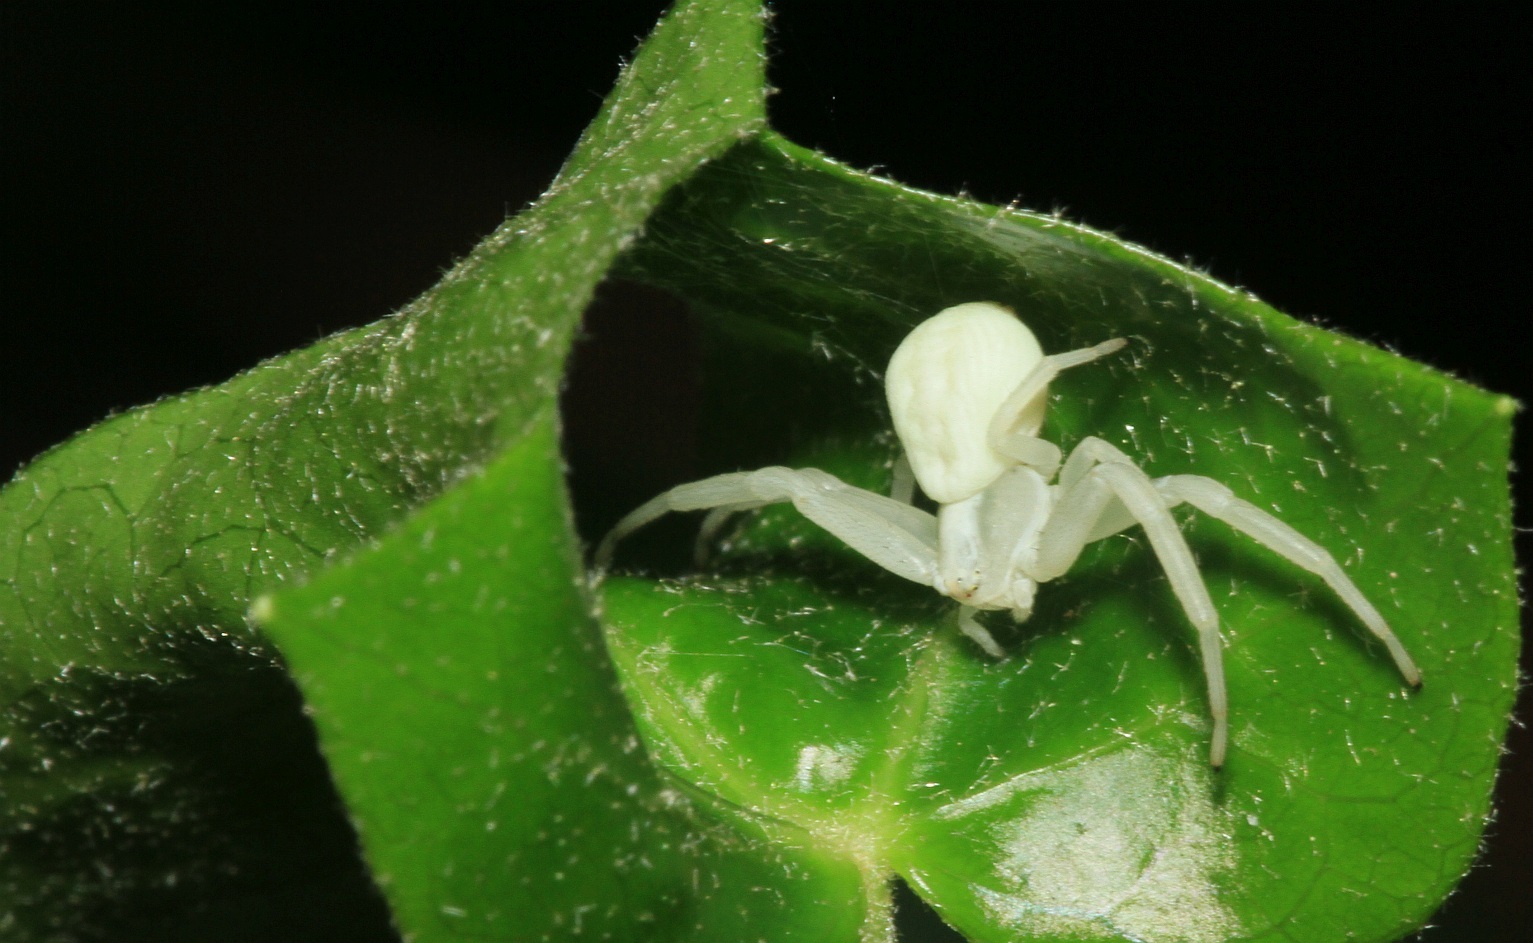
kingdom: Animalia
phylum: Arthropoda
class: Arachnida
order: Araneae
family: Thomisidae
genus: Misumena
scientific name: Misumena vatia
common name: Goldenrod crab spider
